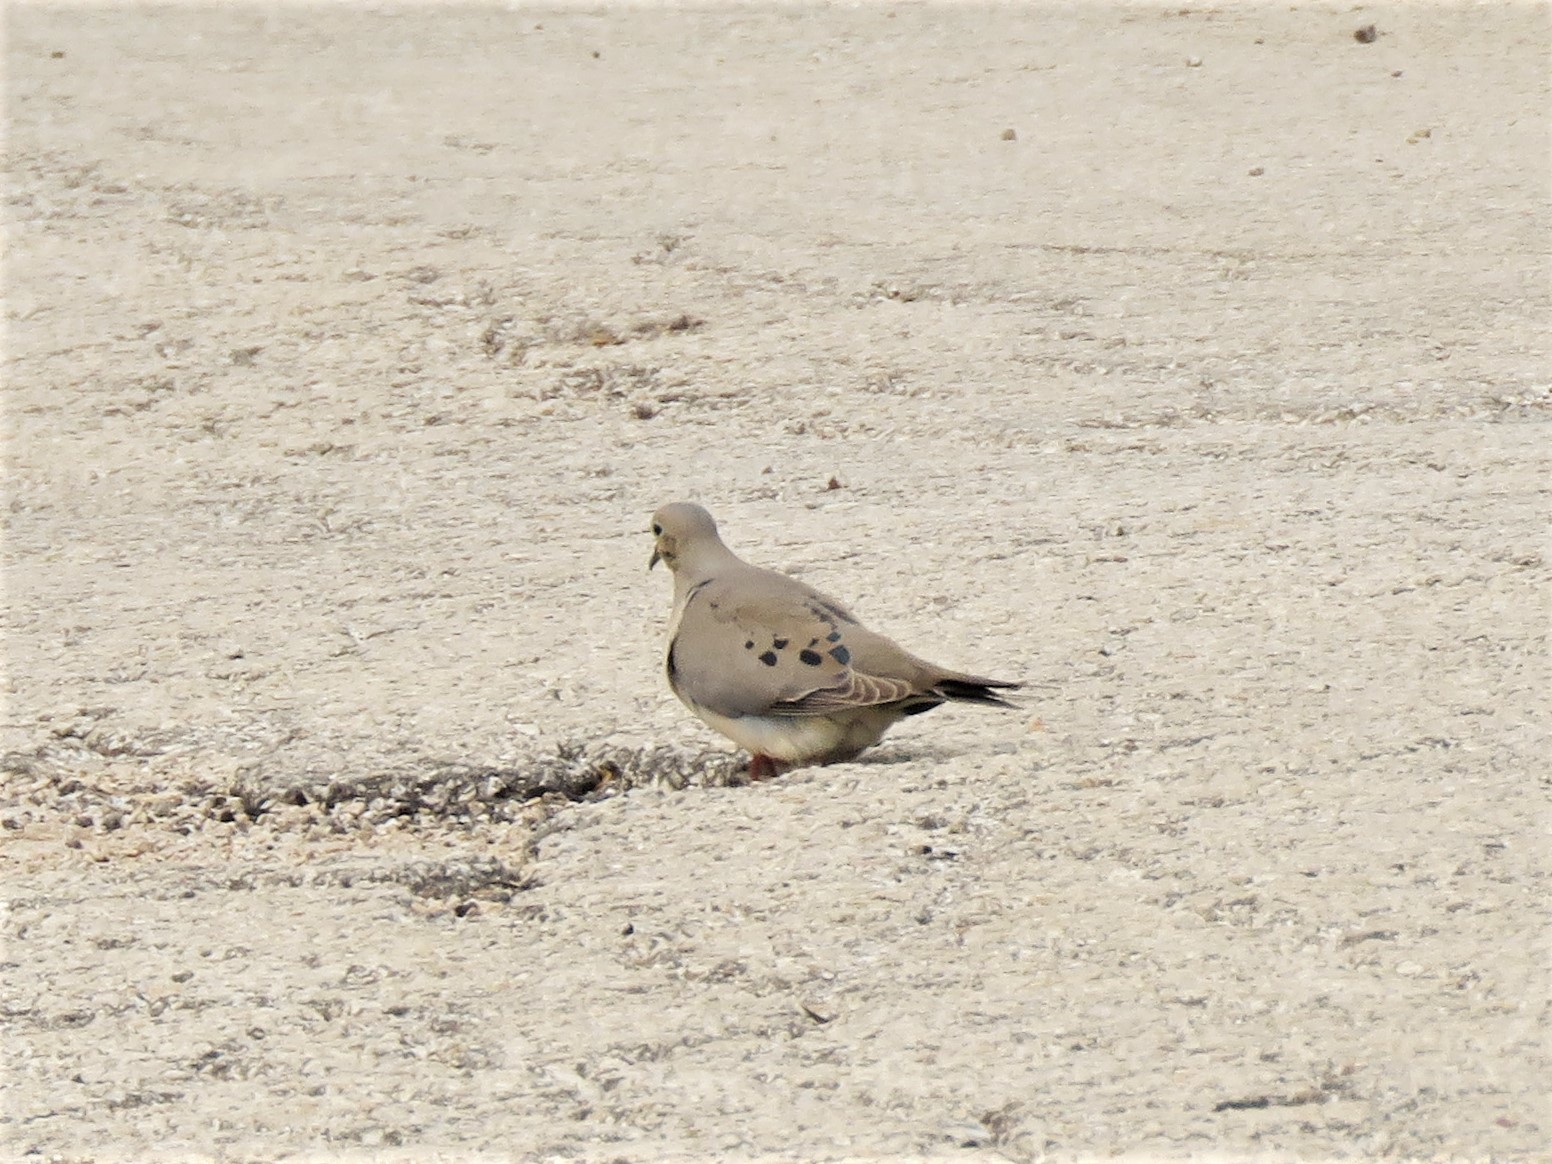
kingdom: Animalia
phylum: Chordata
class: Aves
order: Columbiformes
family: Columbidae
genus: Zenaida
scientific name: Zenaida macroura
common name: Mourning dove
